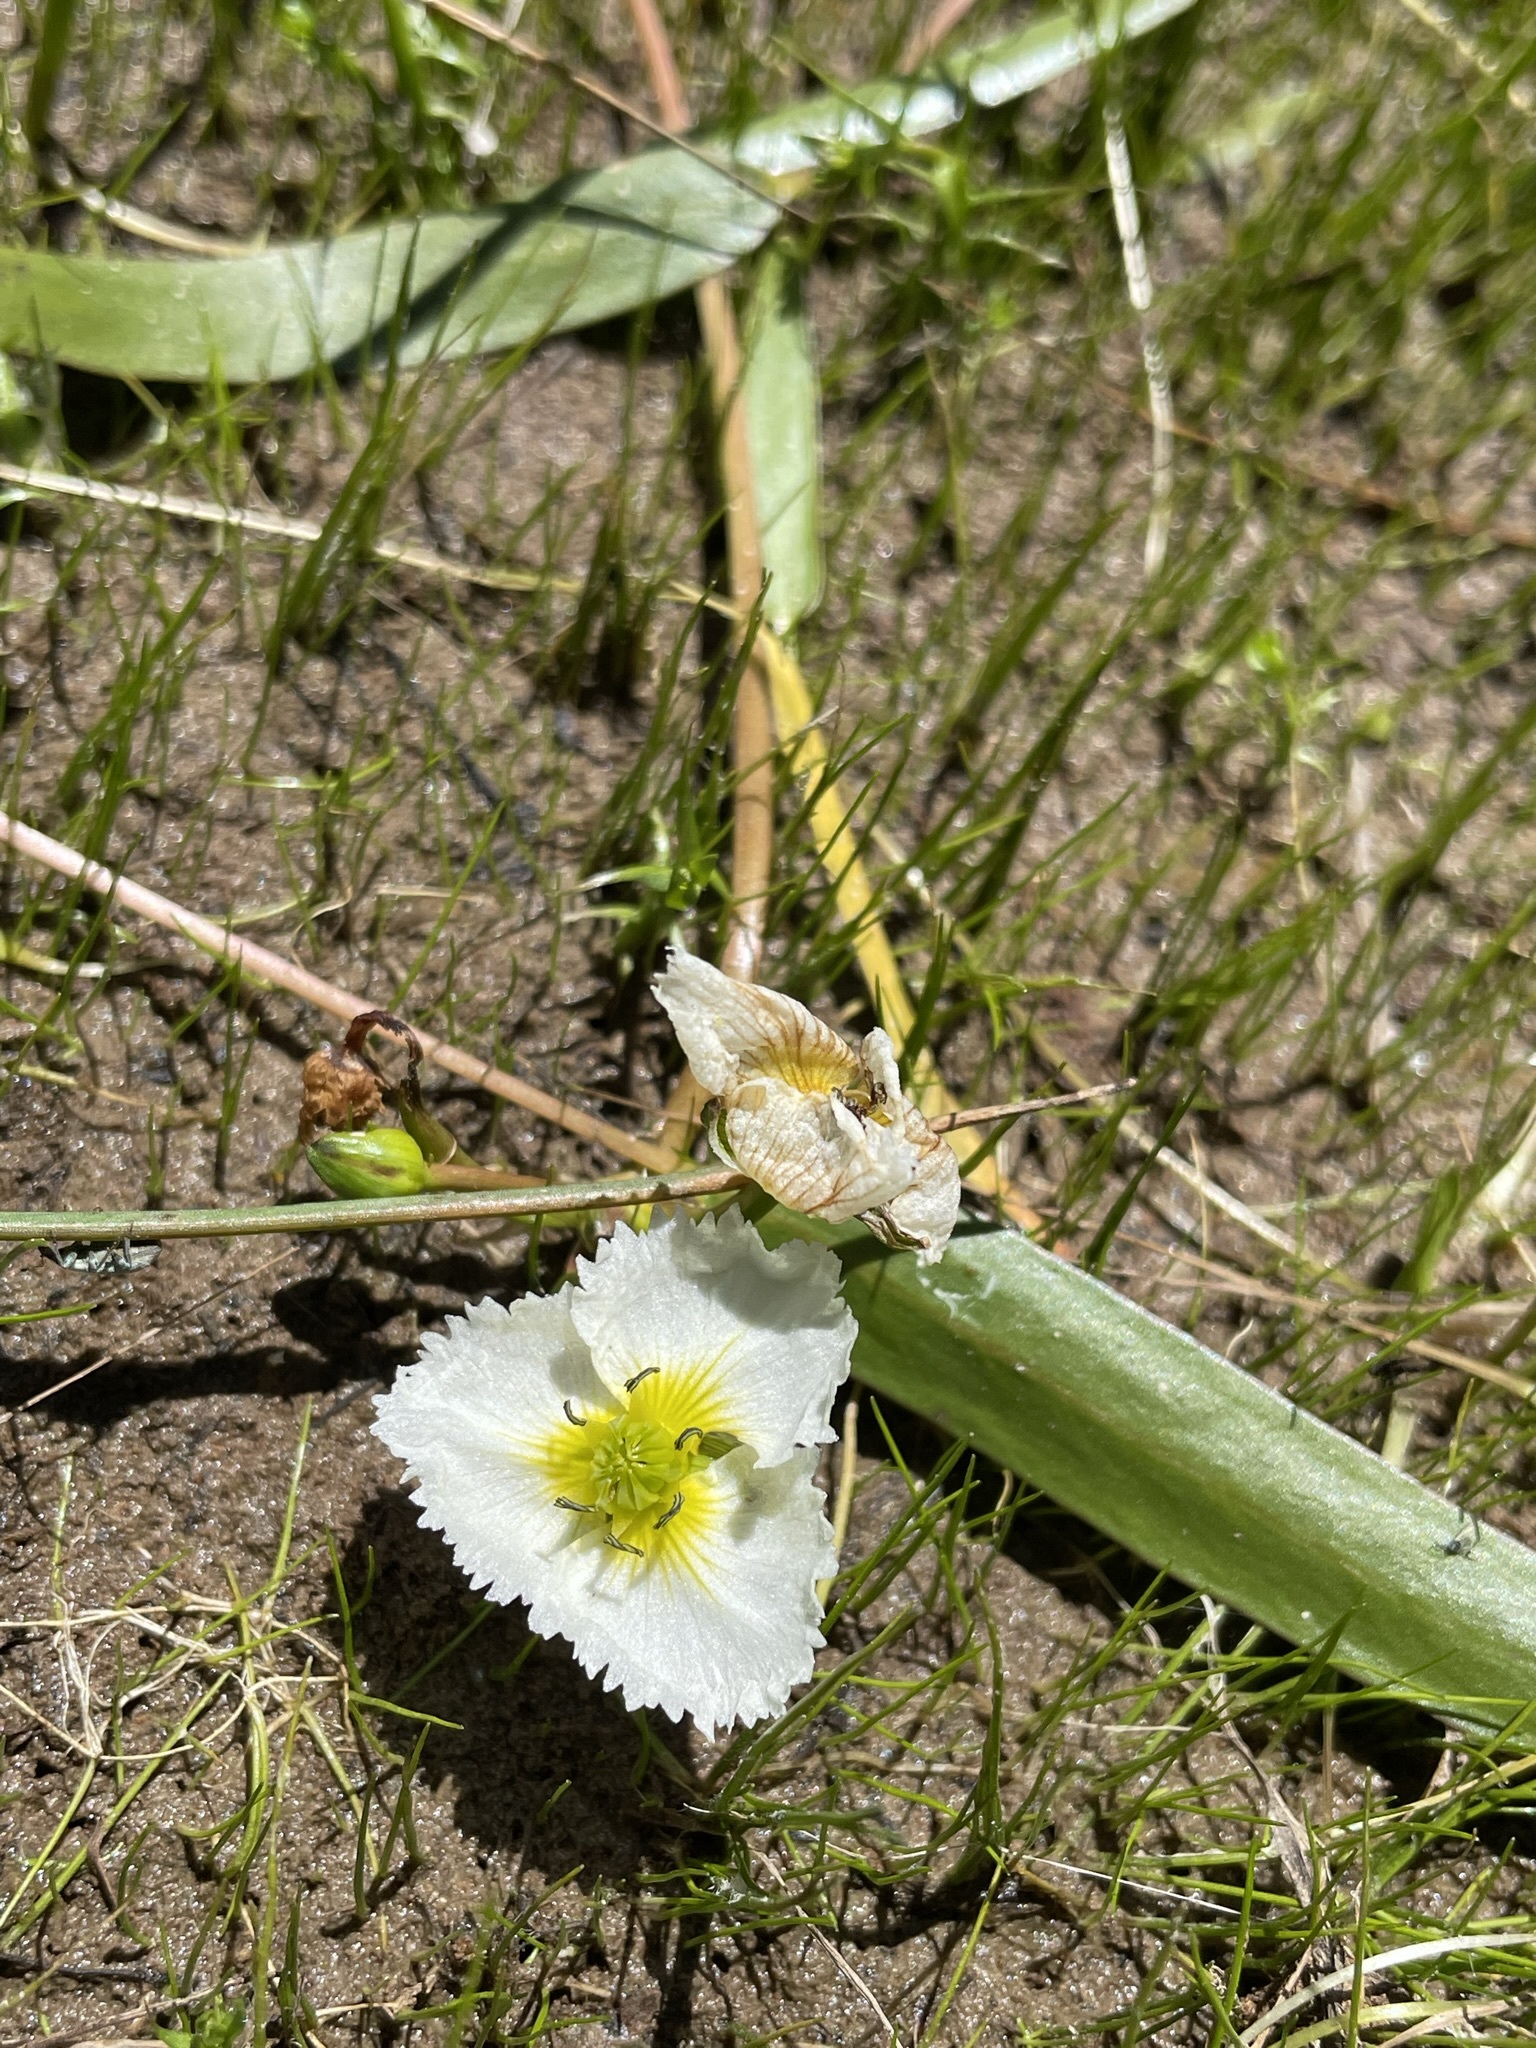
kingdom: Plantae
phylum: Tracheophyta
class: Liliopsida
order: Alismatales
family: Alismataceae
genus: Damasonium
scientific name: Damasonium californicum
